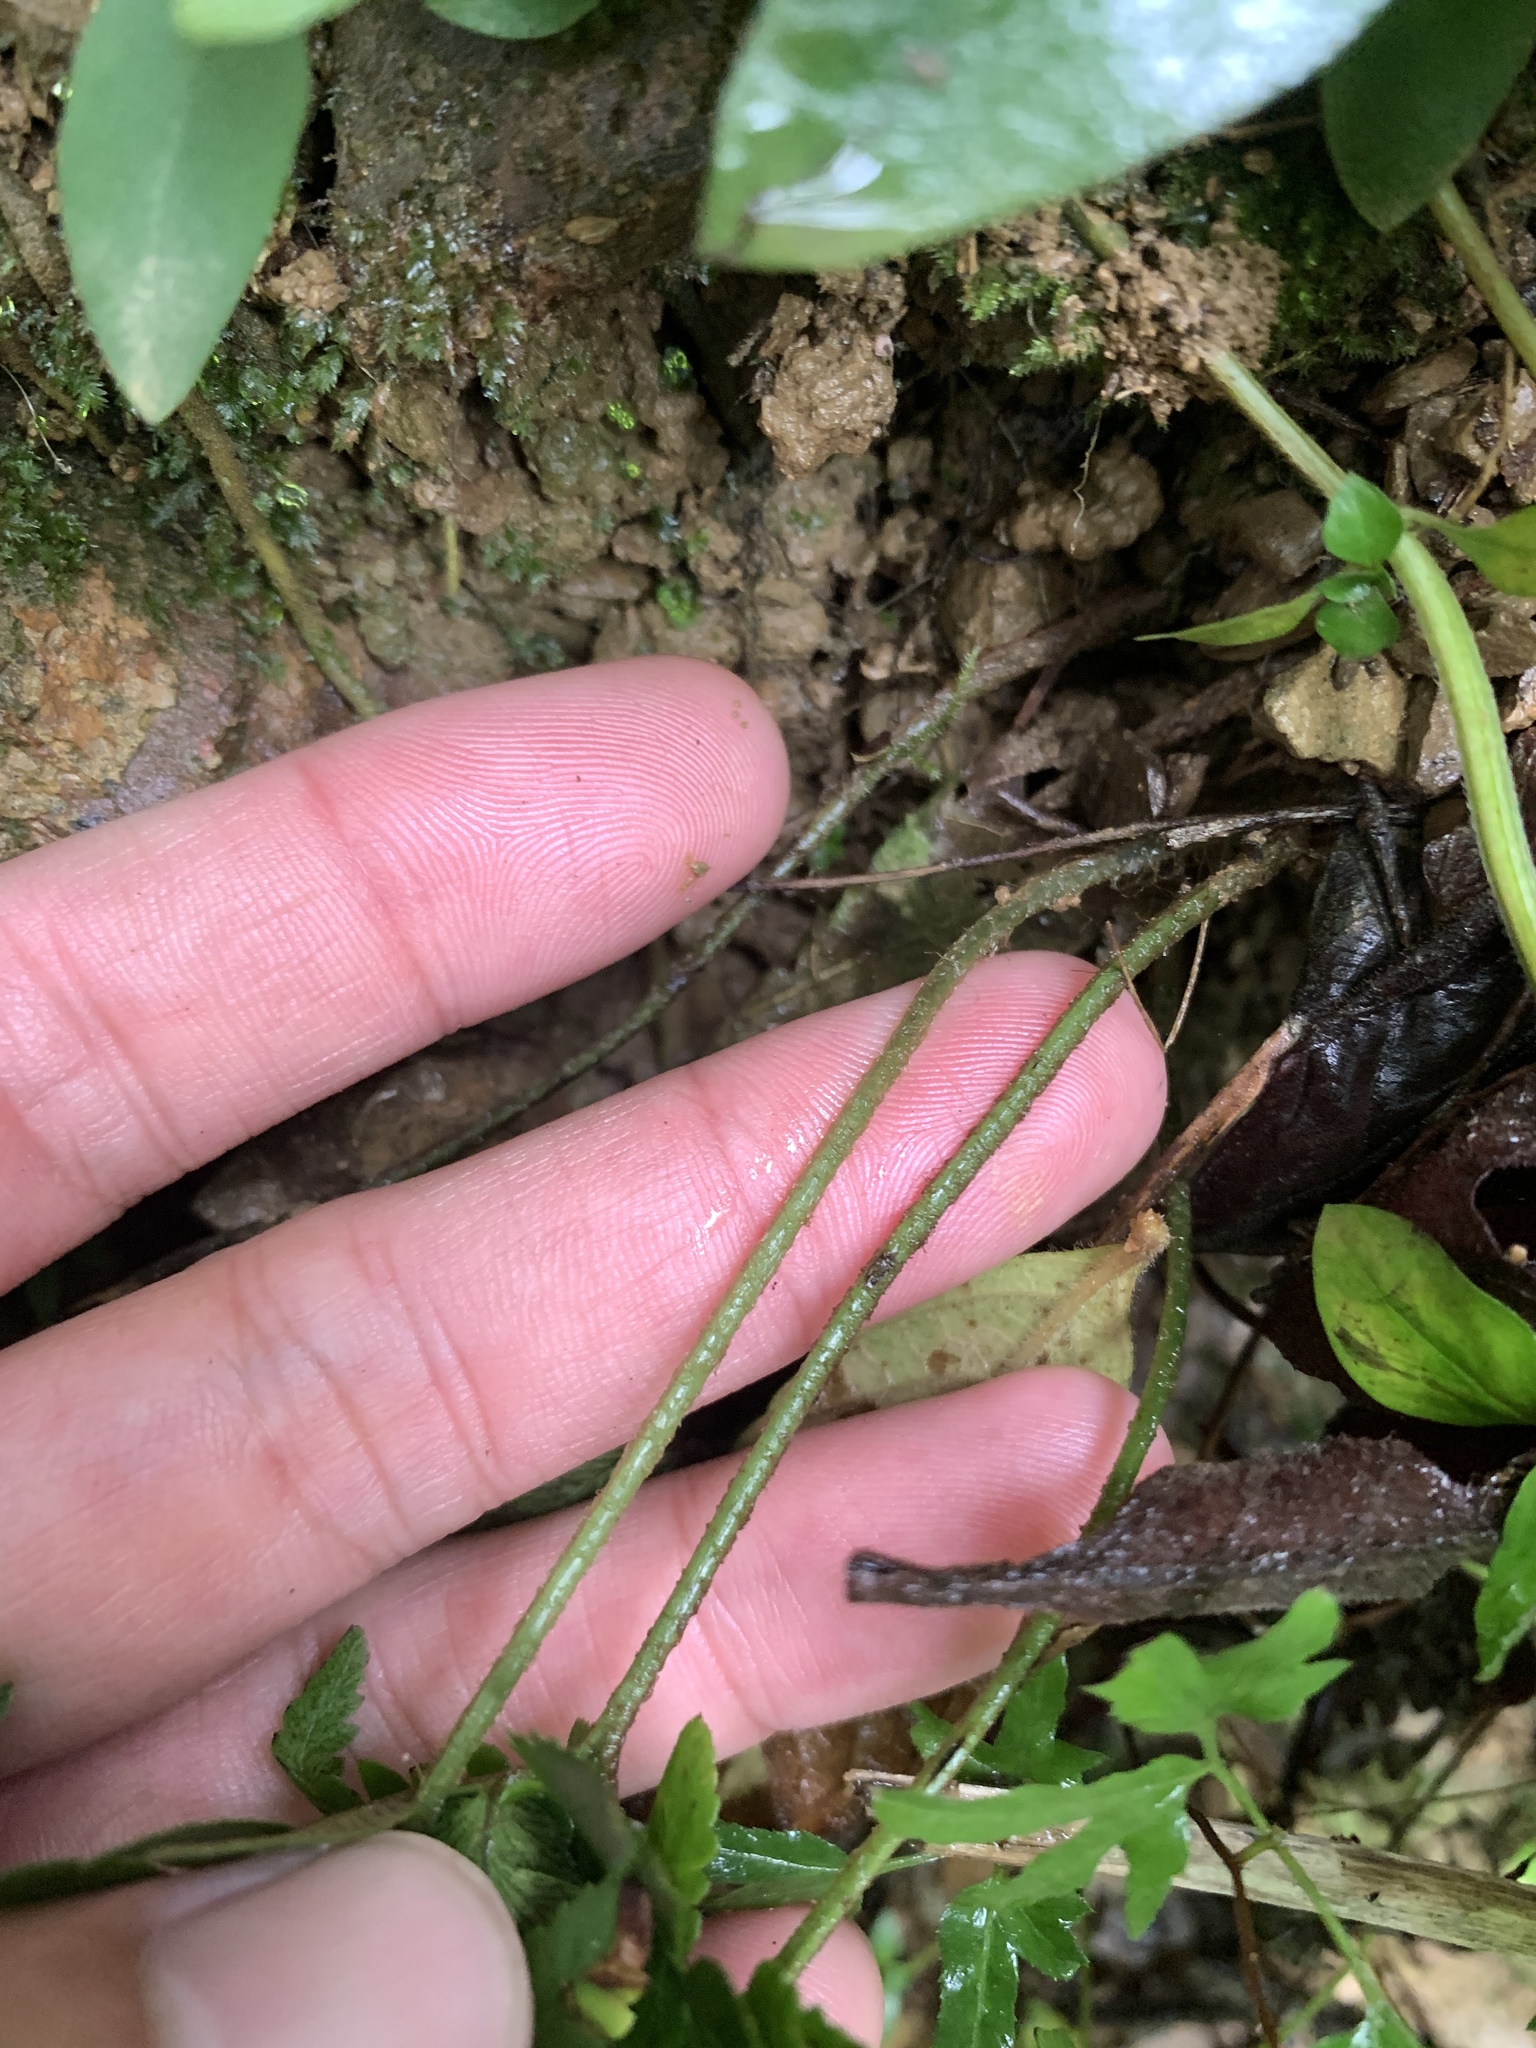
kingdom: Plantae
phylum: Tracheophyta
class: Polypodiopsida
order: Polypodiales
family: Dryopteridaceae
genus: Dryopteris
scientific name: Dryopteris varia
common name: Japanese holly fern
